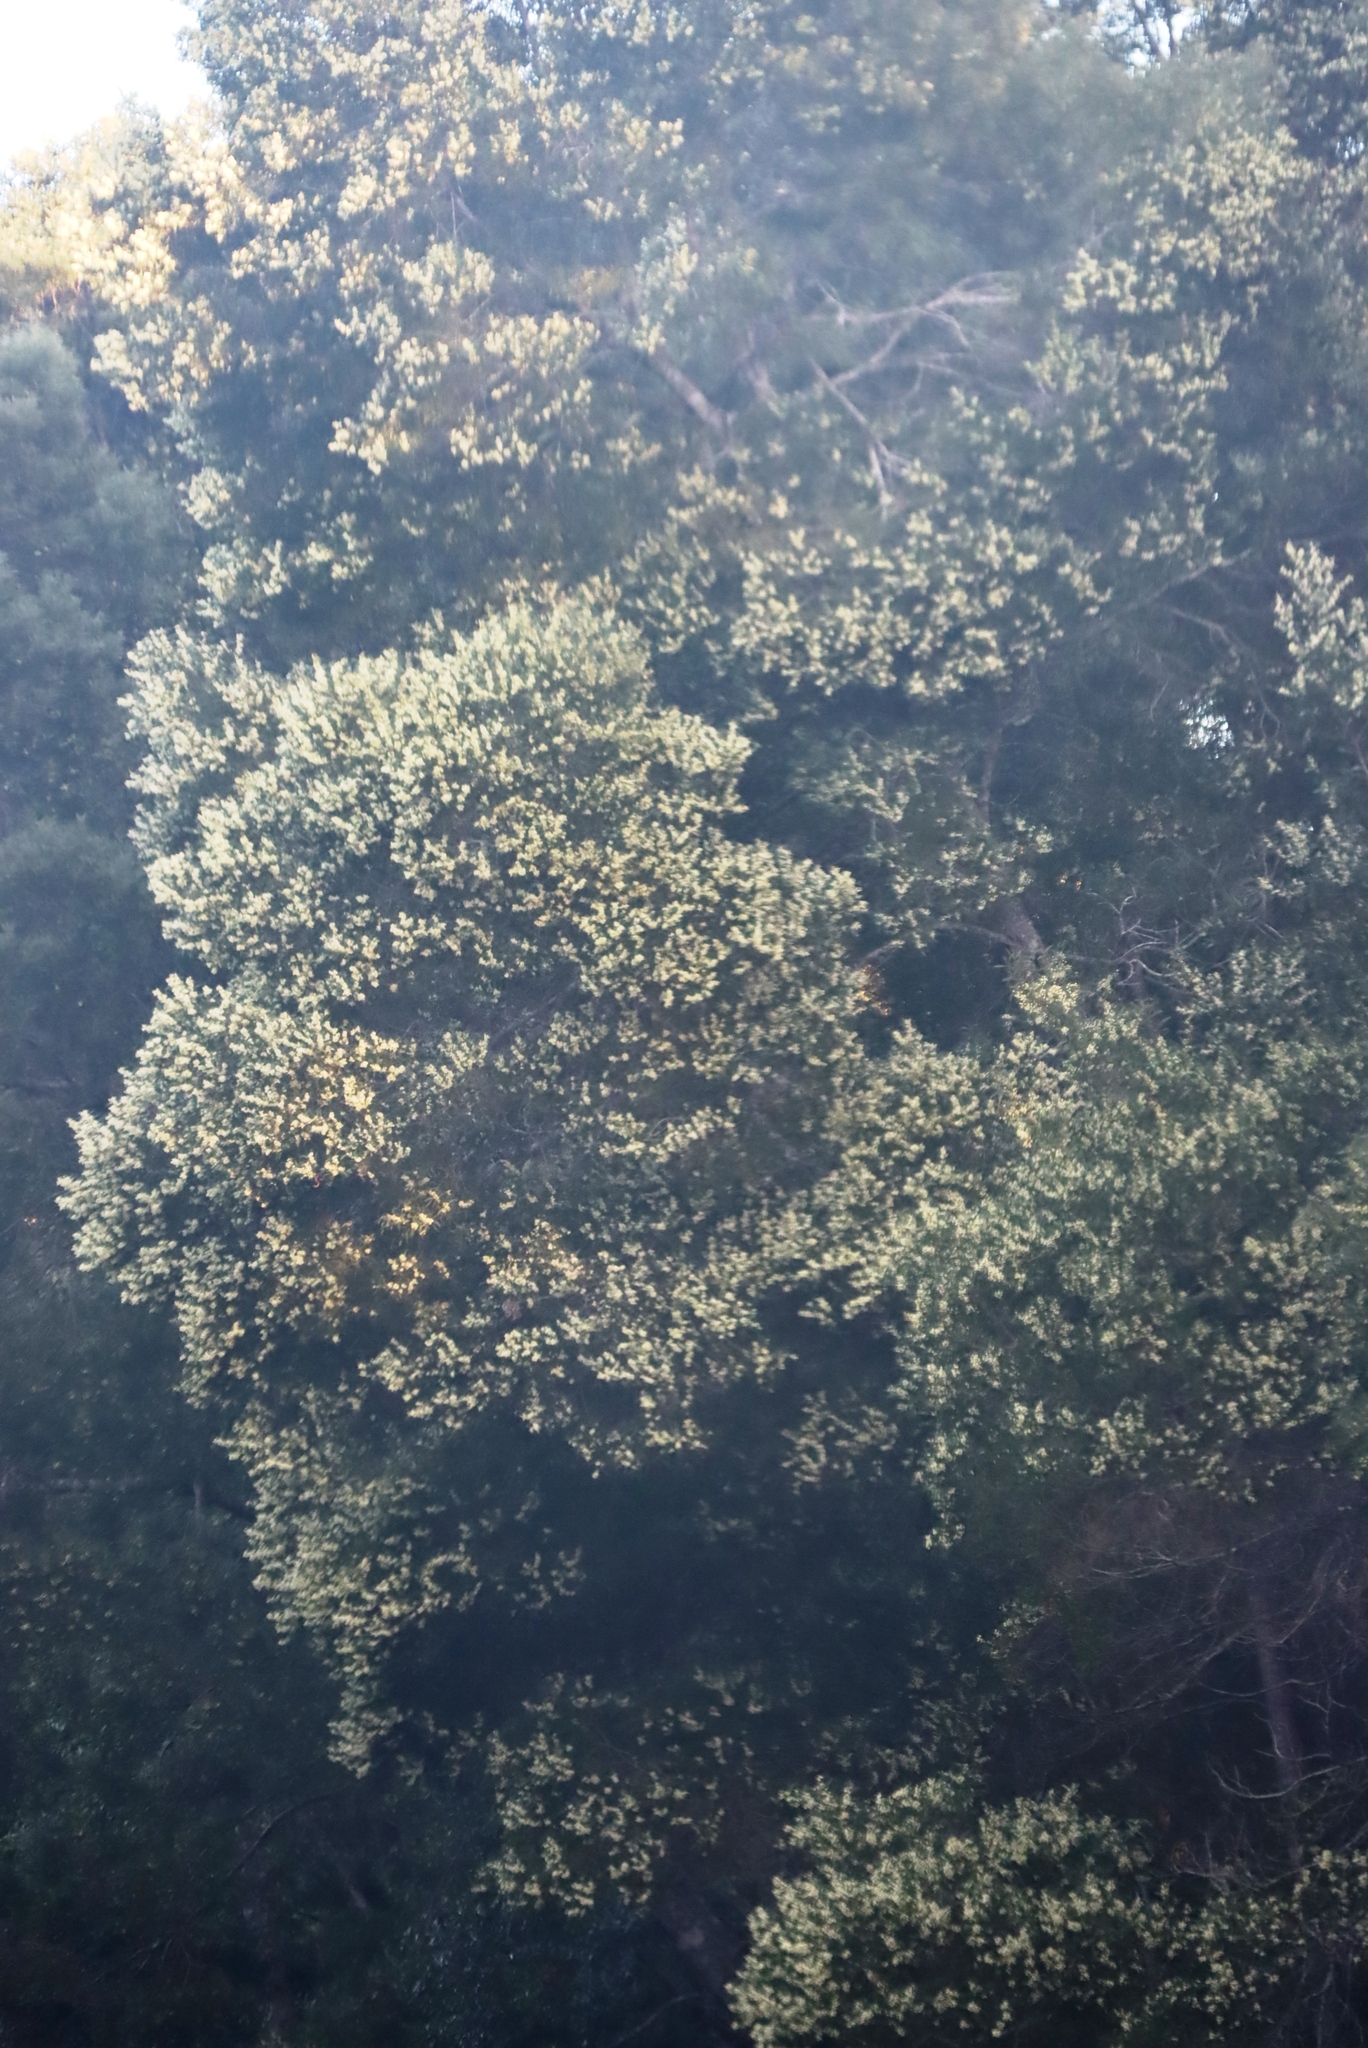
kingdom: Plantae
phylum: Tracheophyta
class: Magnoliopsida
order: Fabales
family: Fabaceae
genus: Acacia
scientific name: Acacia melanoxylon
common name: Blackwood
